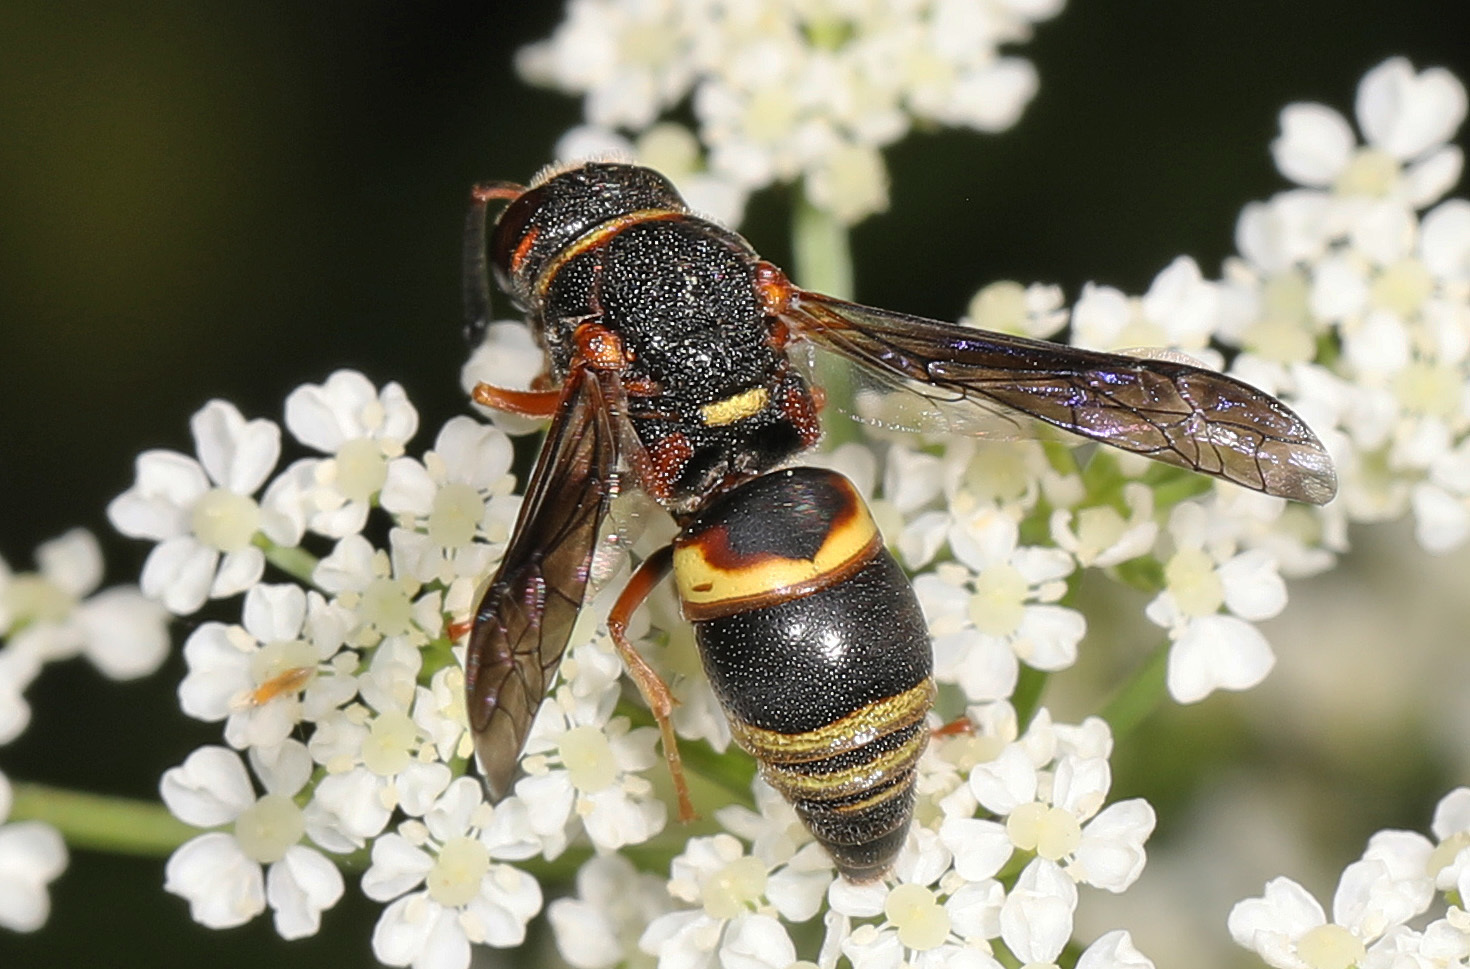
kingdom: Animalia
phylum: Arthropoda
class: Insecta
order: Hymenoptera
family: Eumenidae
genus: Euodynerus
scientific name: Euodynerus hidalgo
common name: Wasp
